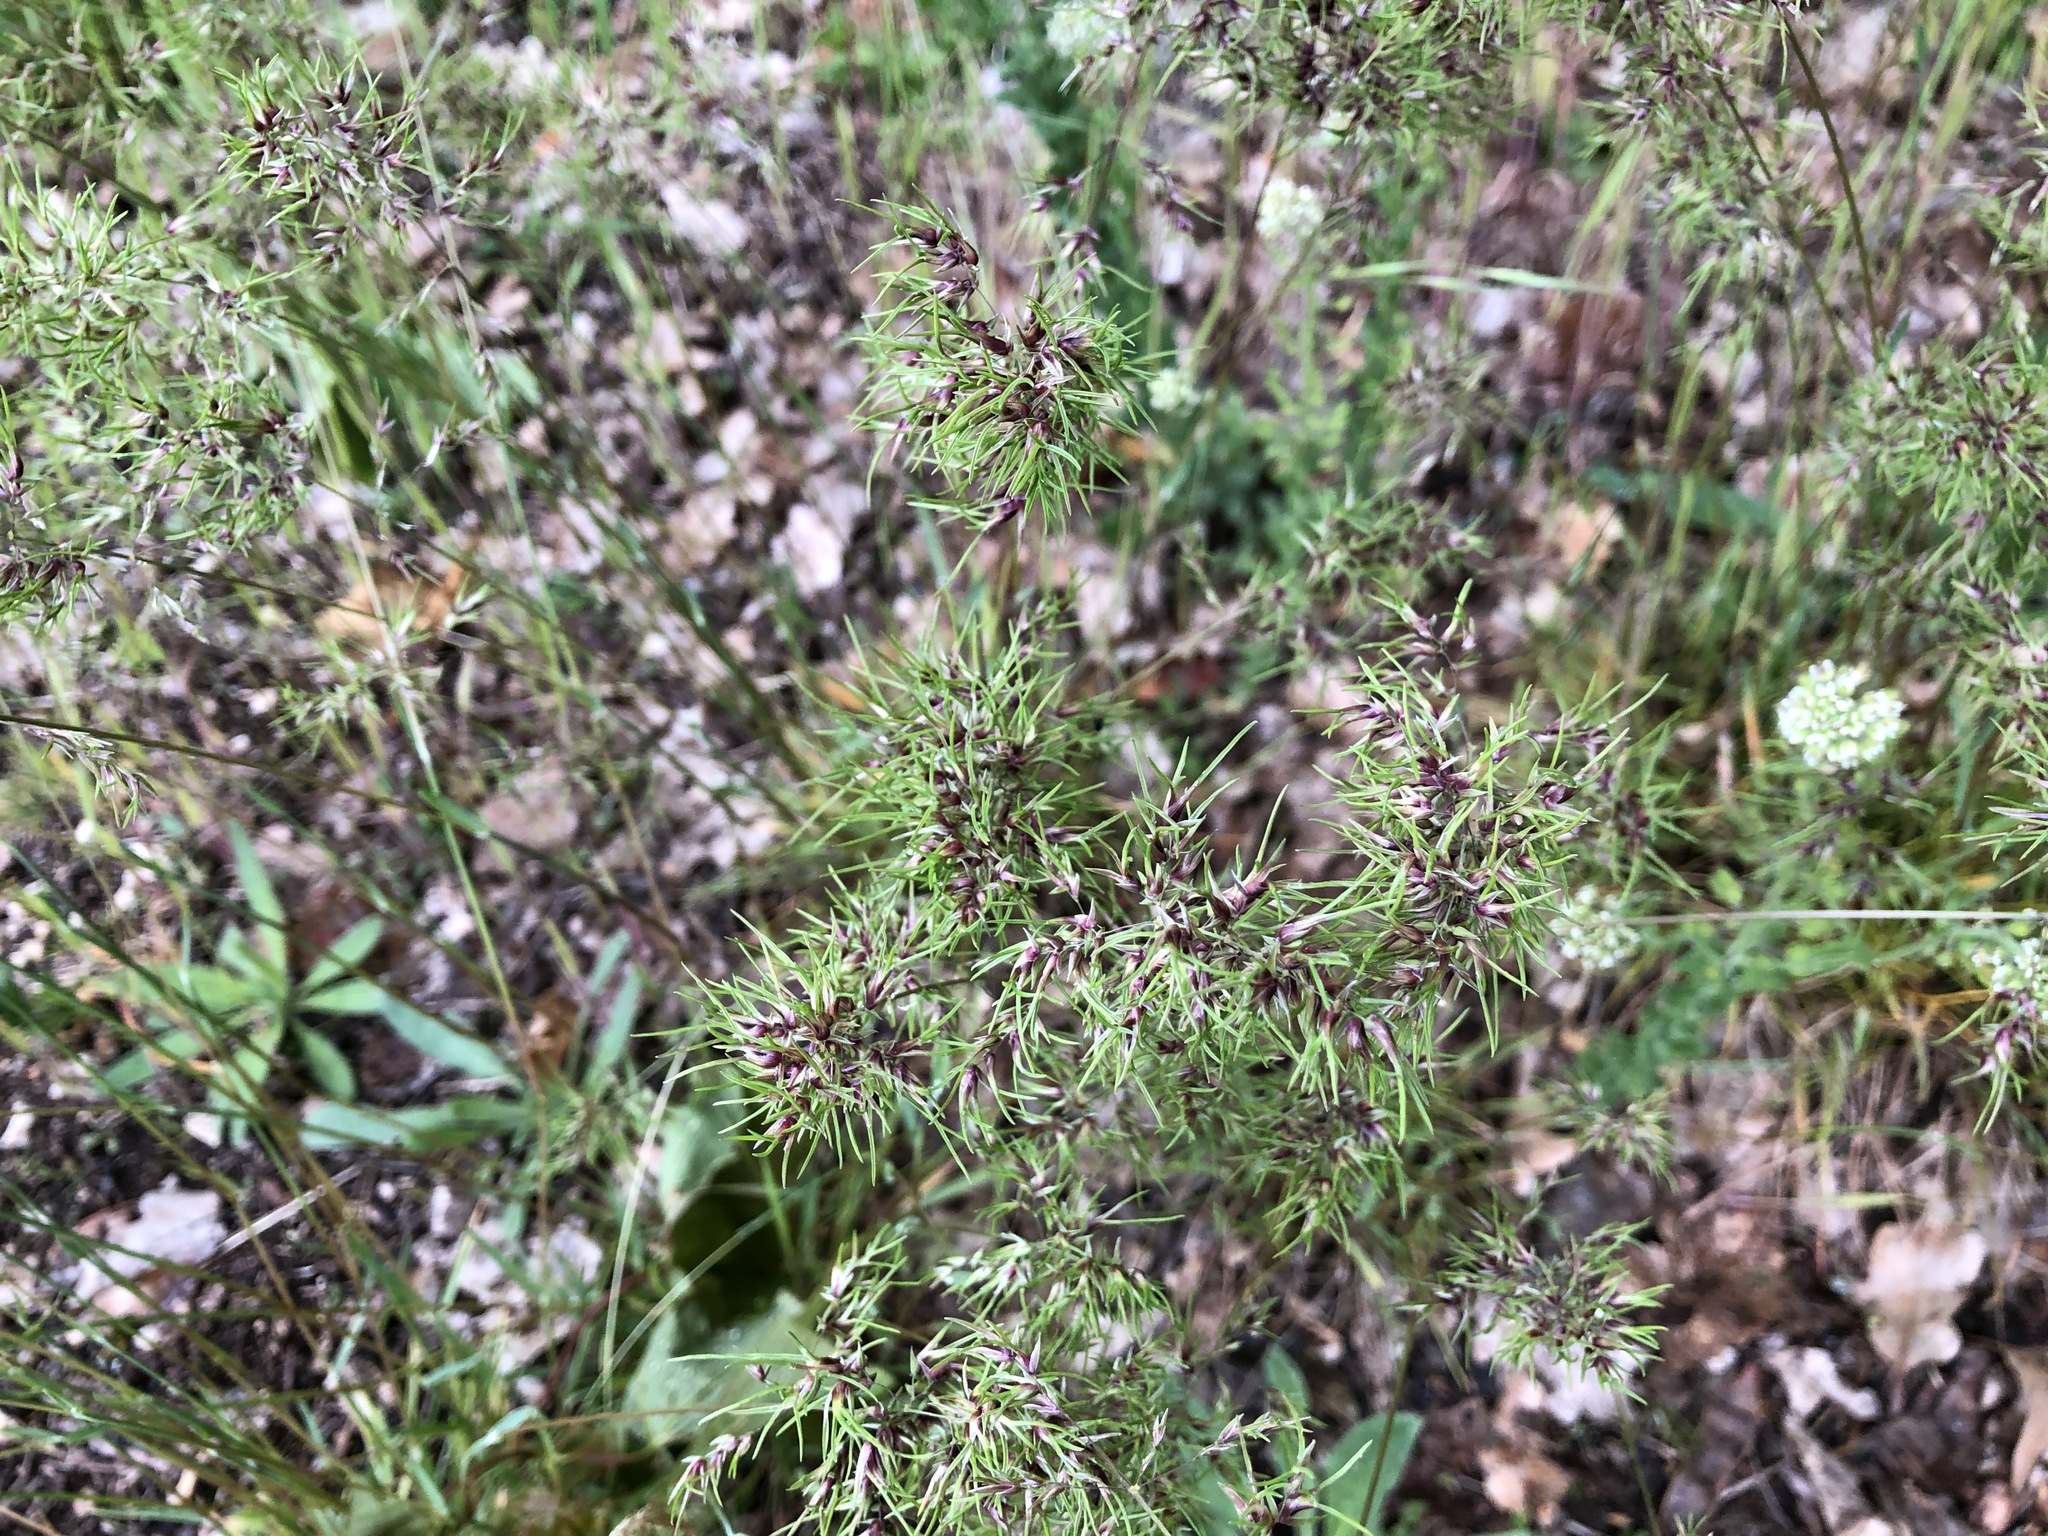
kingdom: Plantae
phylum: Tracheophyta
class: Liliopsida
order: Poales
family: Poaceae
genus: Poa
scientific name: Poa bulbosa
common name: Bulbous bluegrass
